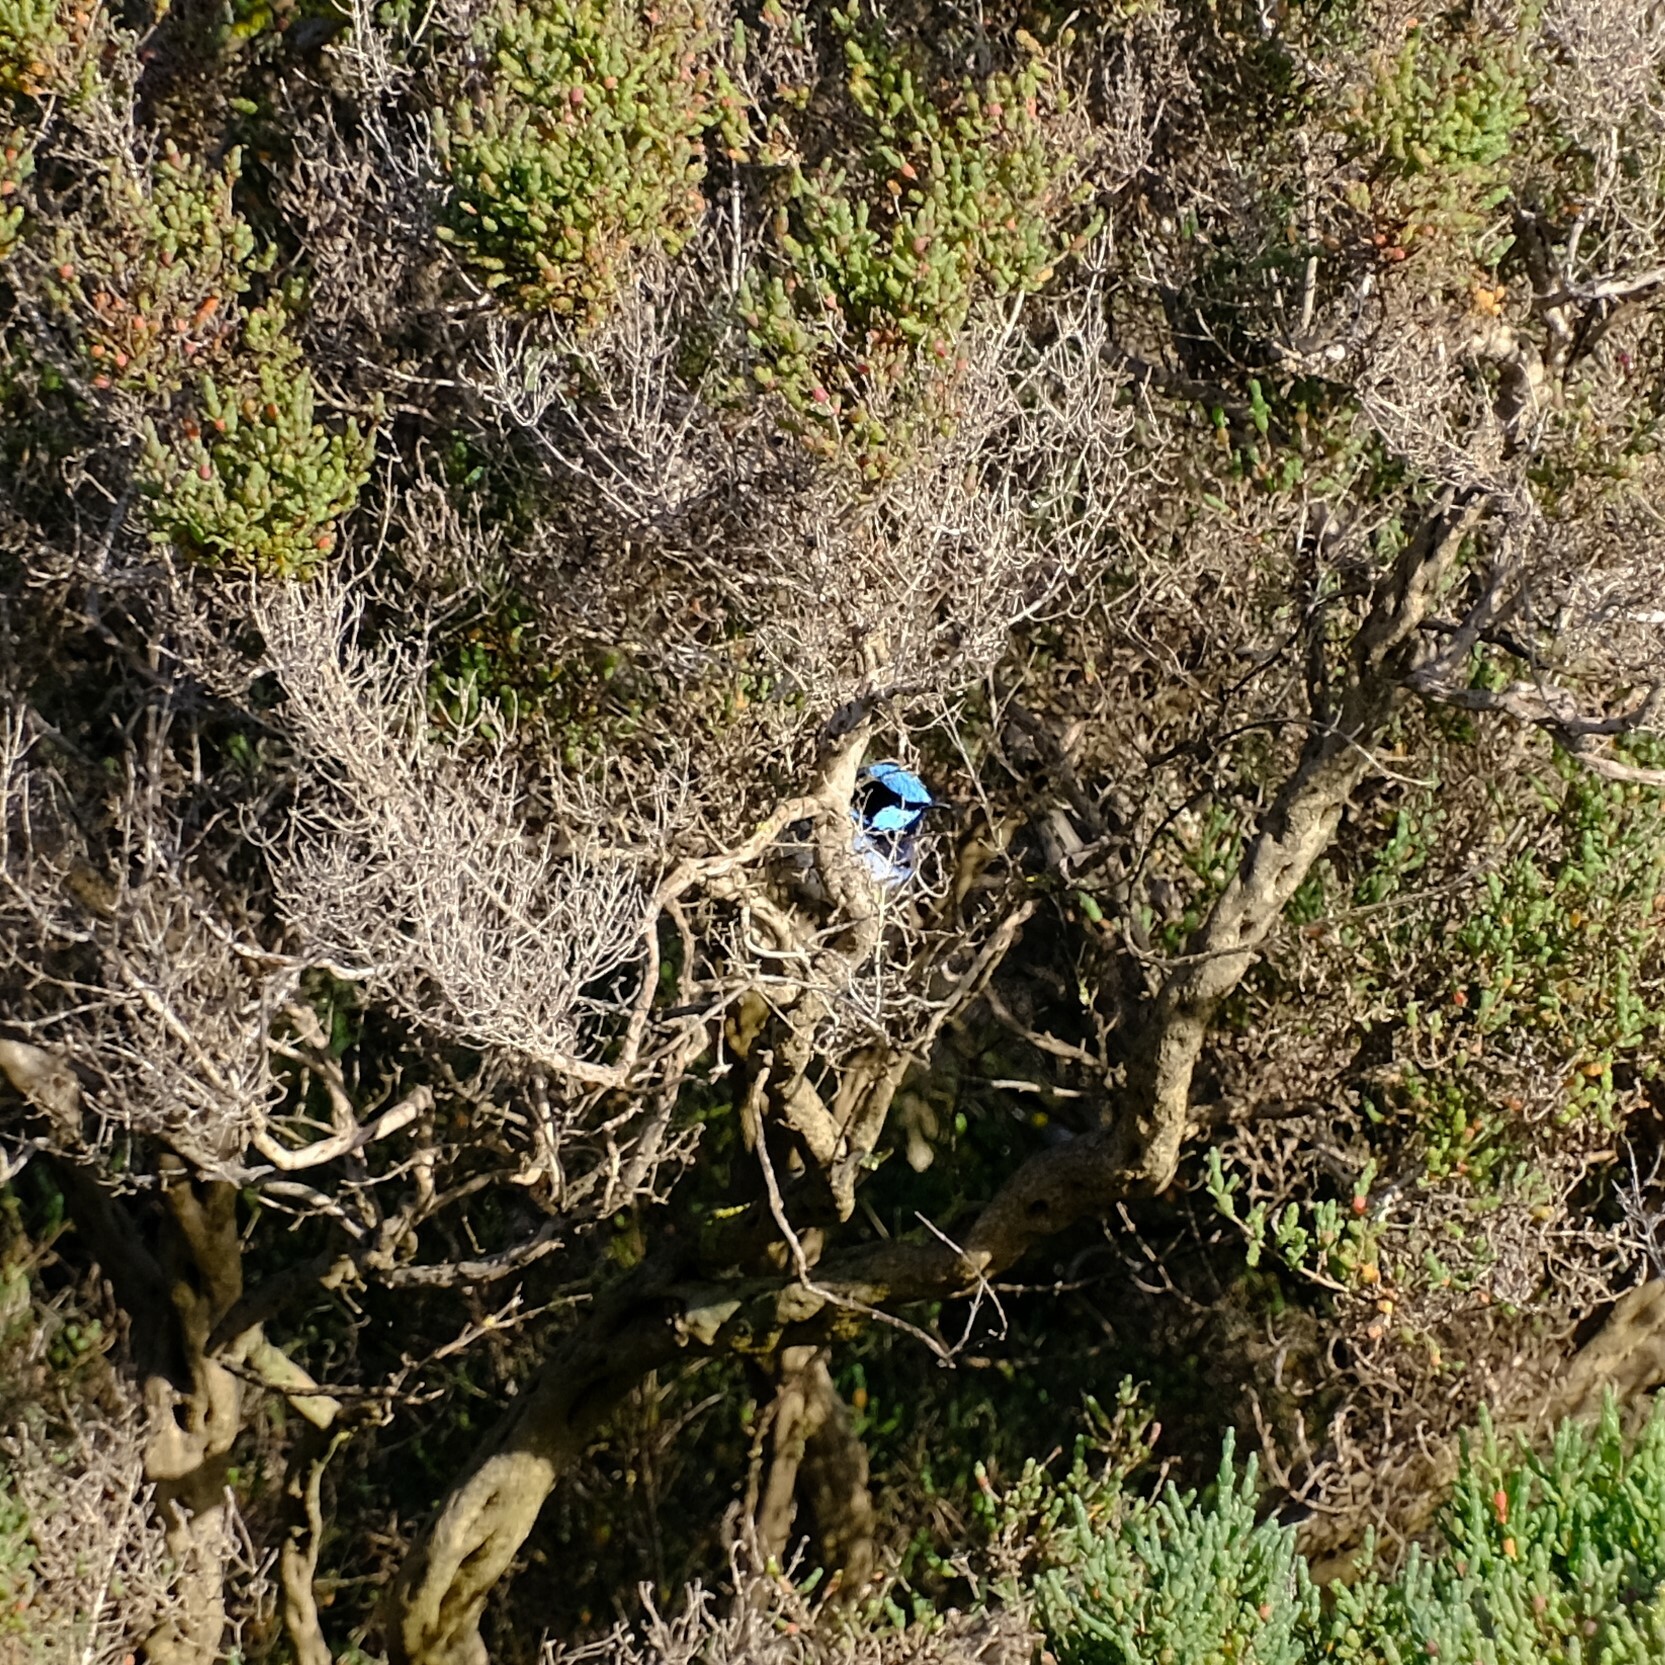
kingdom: Animalia
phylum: Chordata
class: Aves
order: Passeriformes
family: Maluridae
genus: Malurus
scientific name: Malurus cyaneus
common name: Superb fairywren
